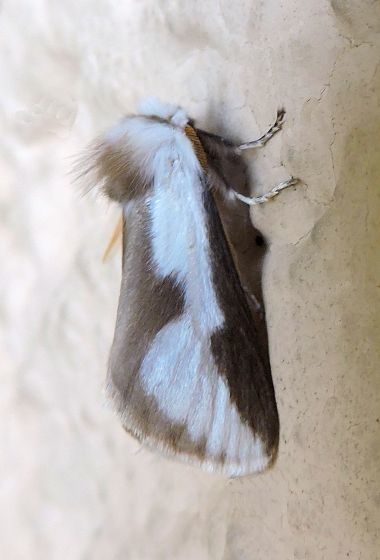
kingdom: Animalia
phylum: Arthropoda
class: Insecta
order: Lepidoptera
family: Megalopygidae
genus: Norape
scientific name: Norape tener
